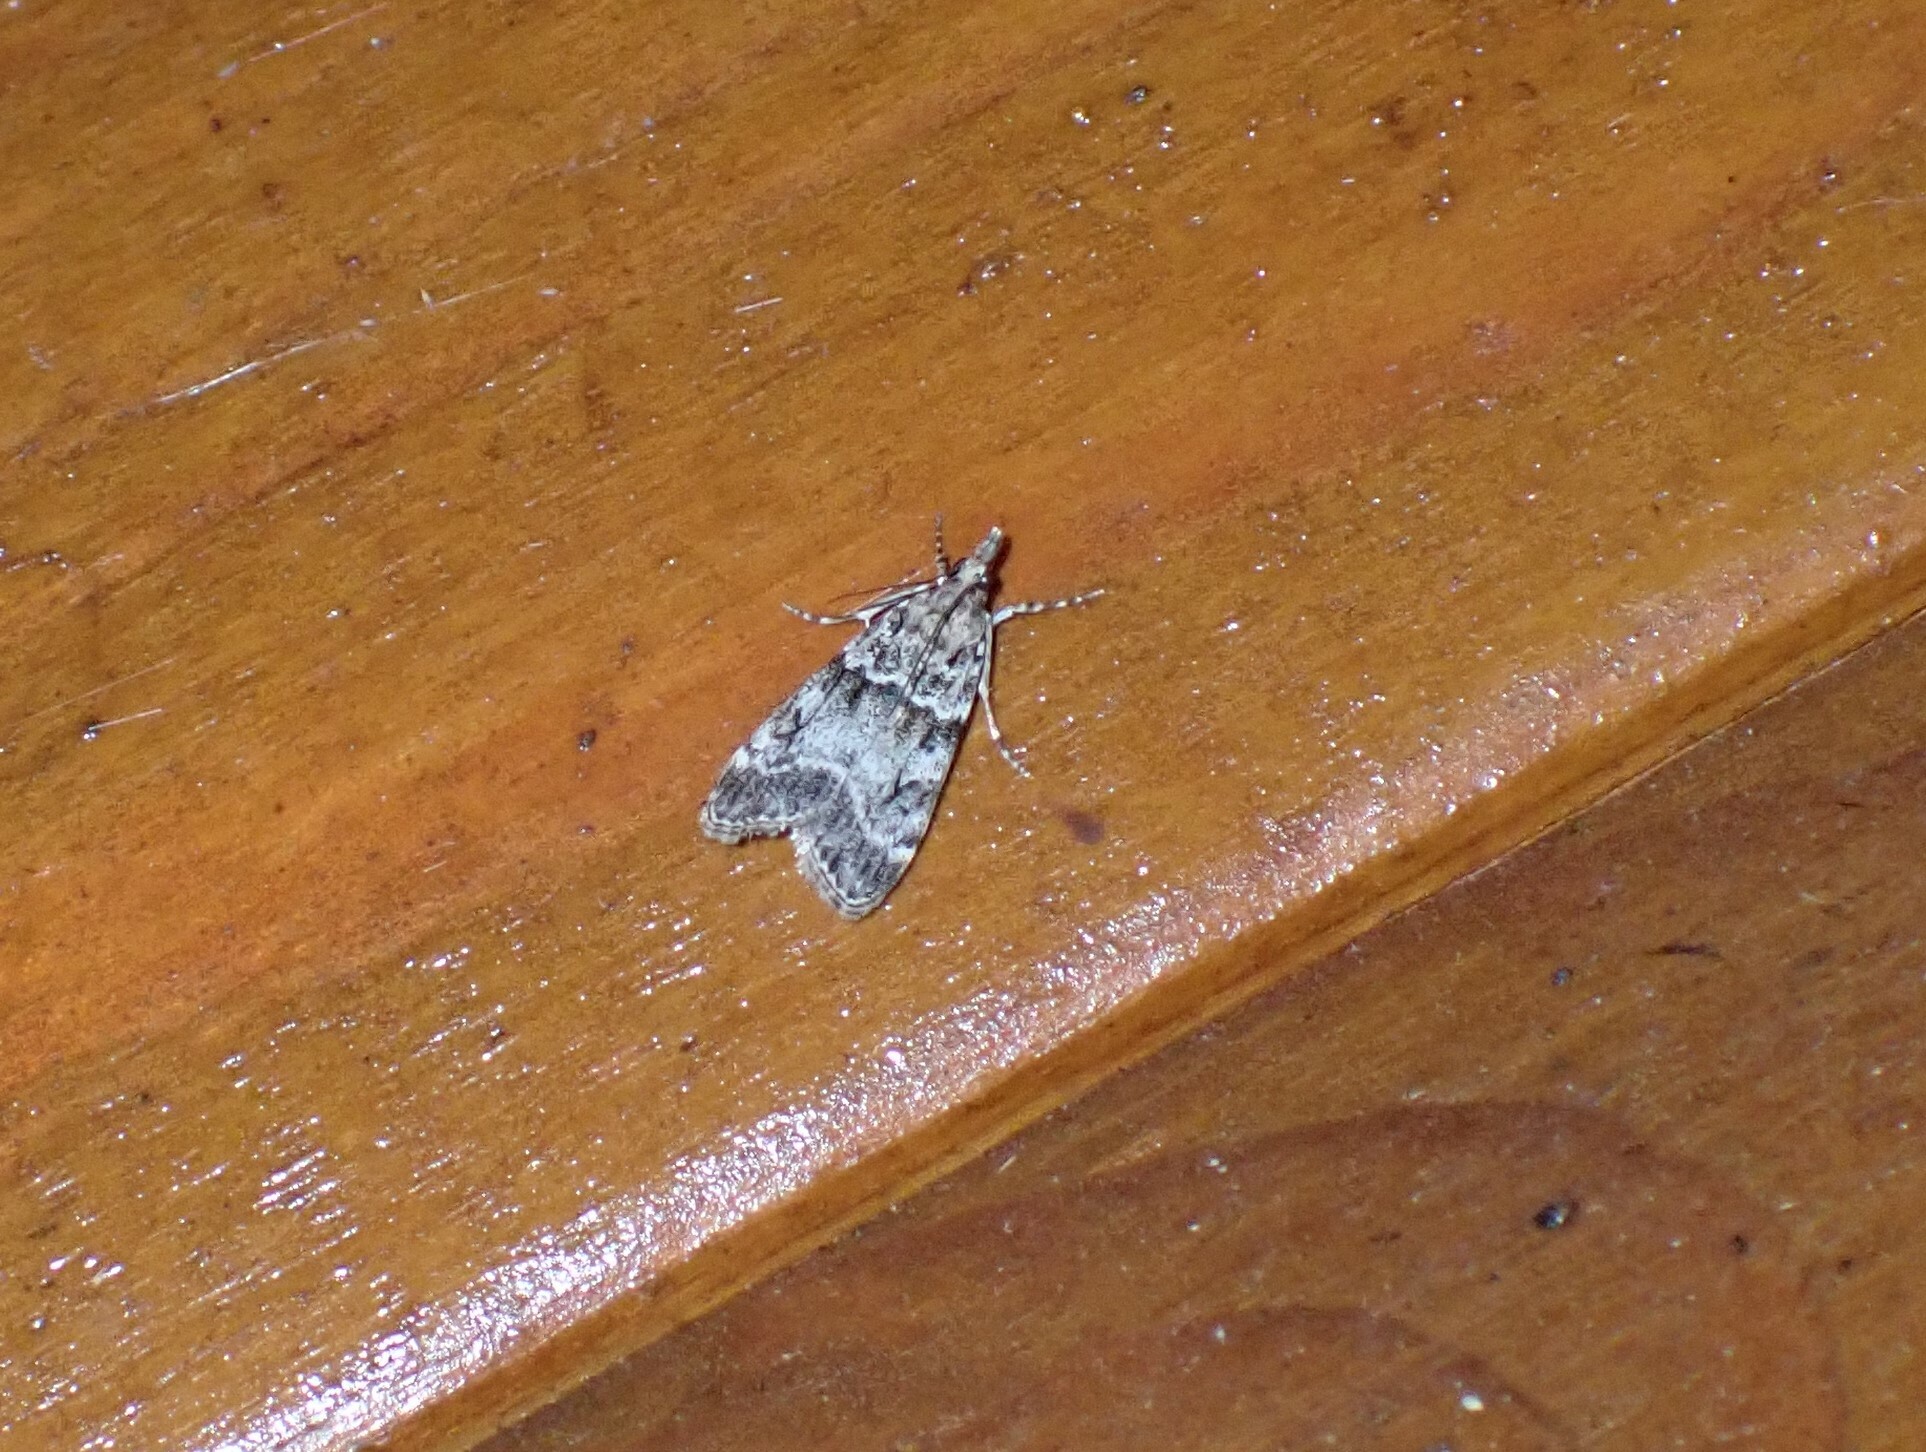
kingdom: Animalia
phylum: Arthropoda
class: Insecta
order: Lepidoptera
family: Crambidae
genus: Eudonia
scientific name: Eudonia mercurella
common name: Small grey
